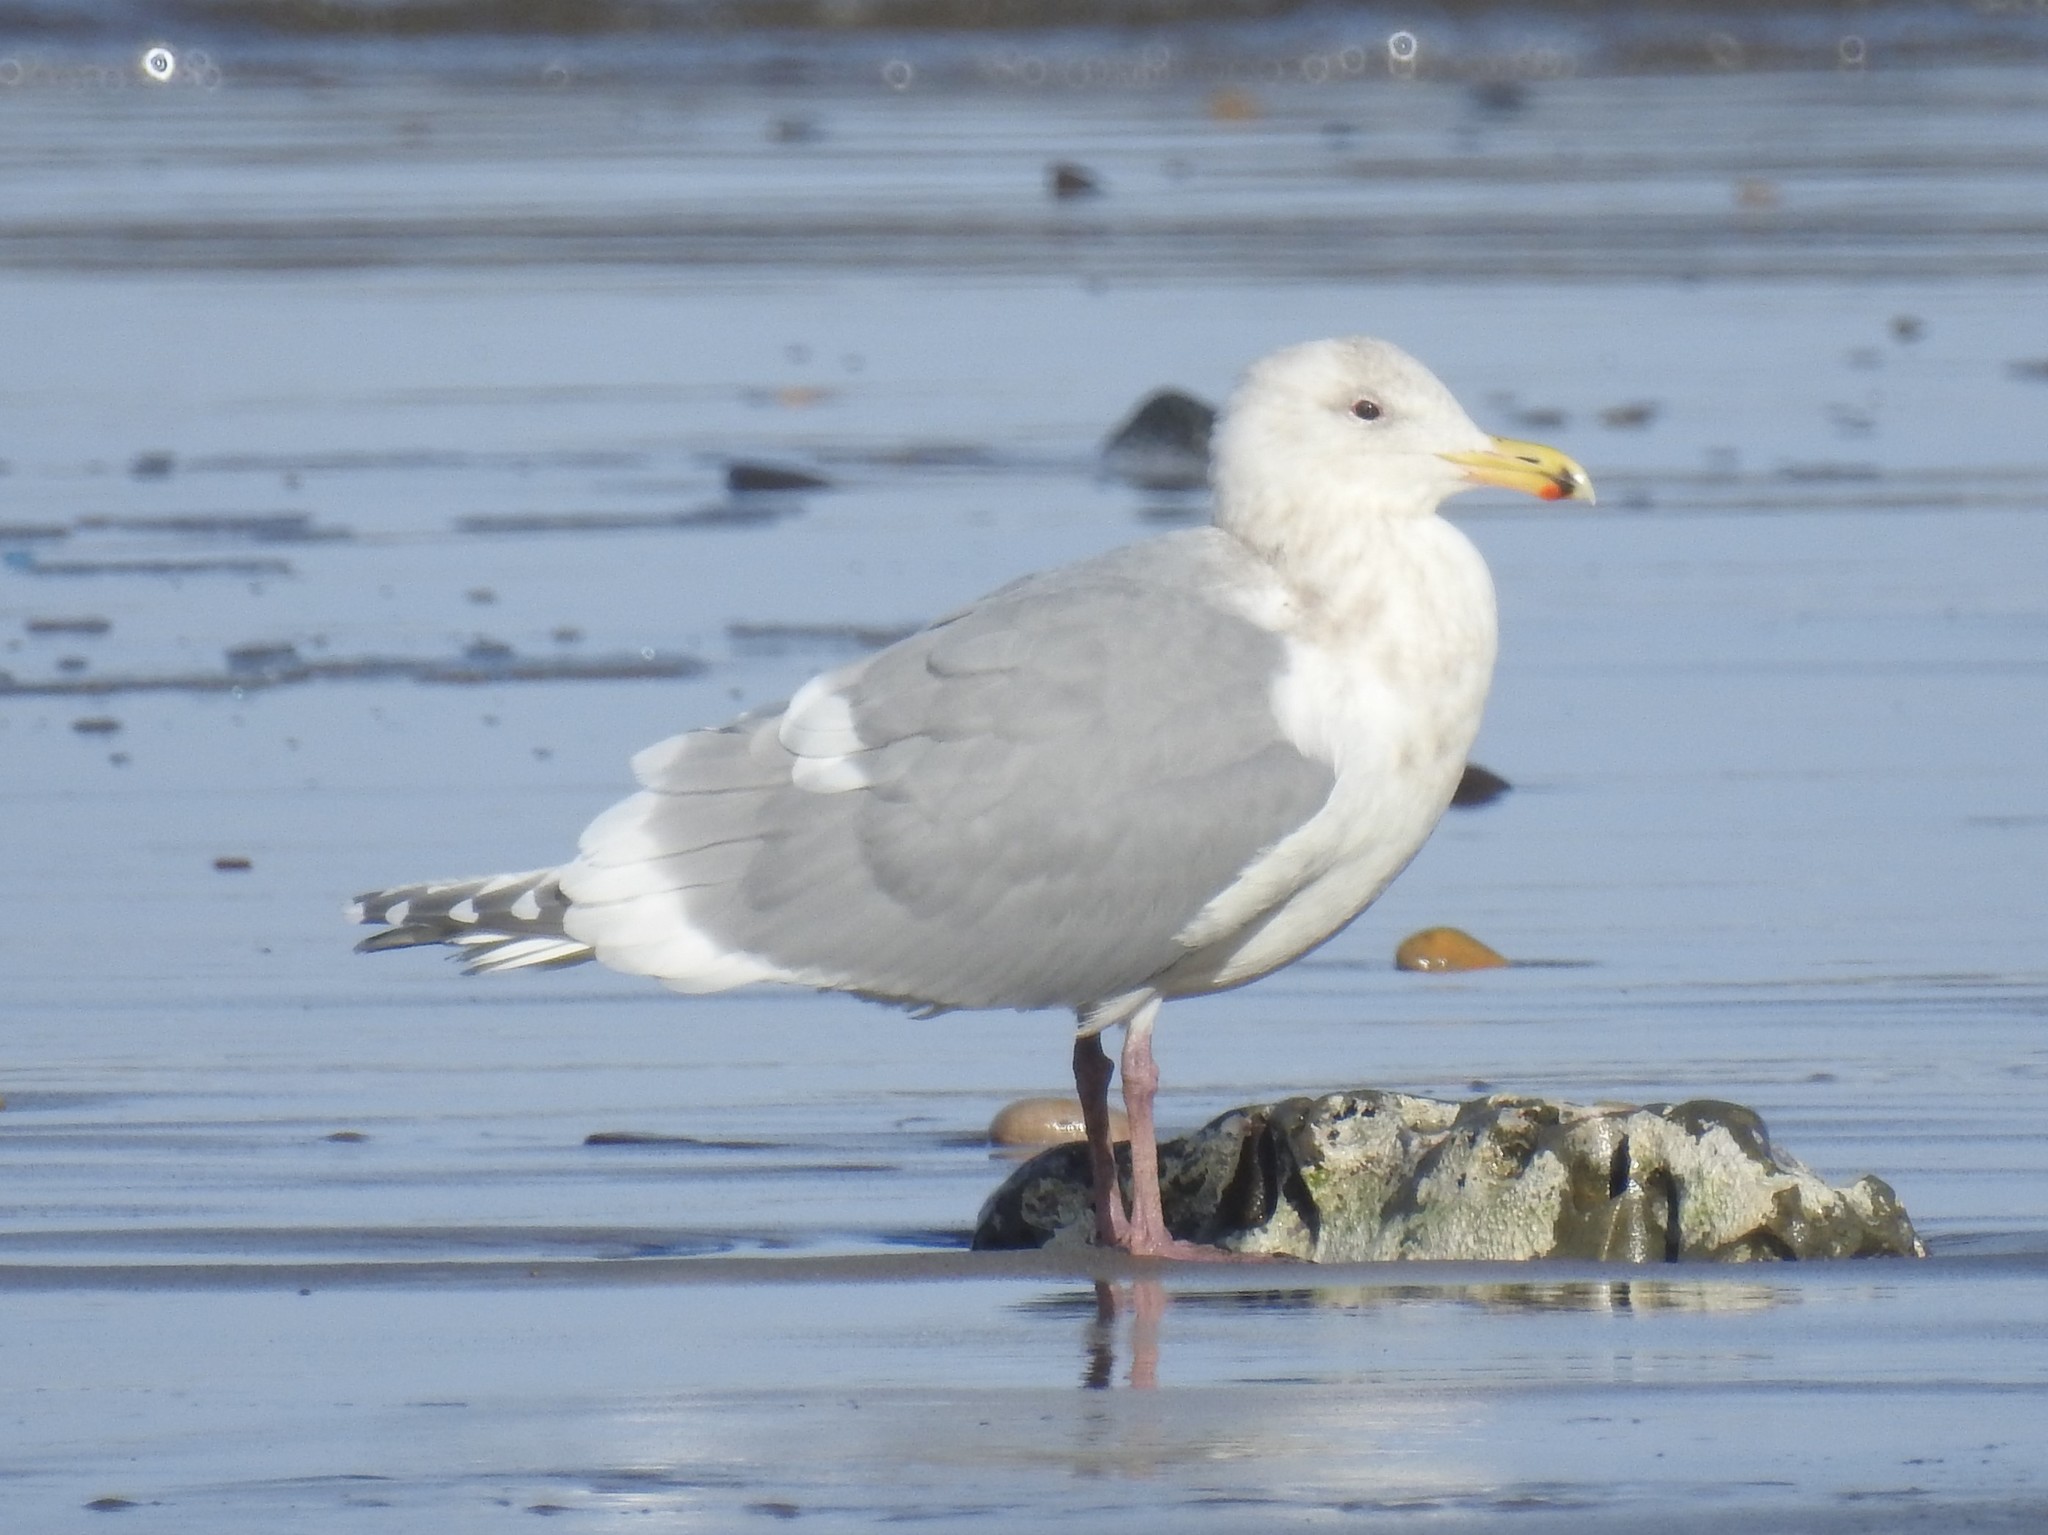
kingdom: Animalia
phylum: Chordata
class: Aves
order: Charadriiformes
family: Laridae
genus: Larus
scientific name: Larus
